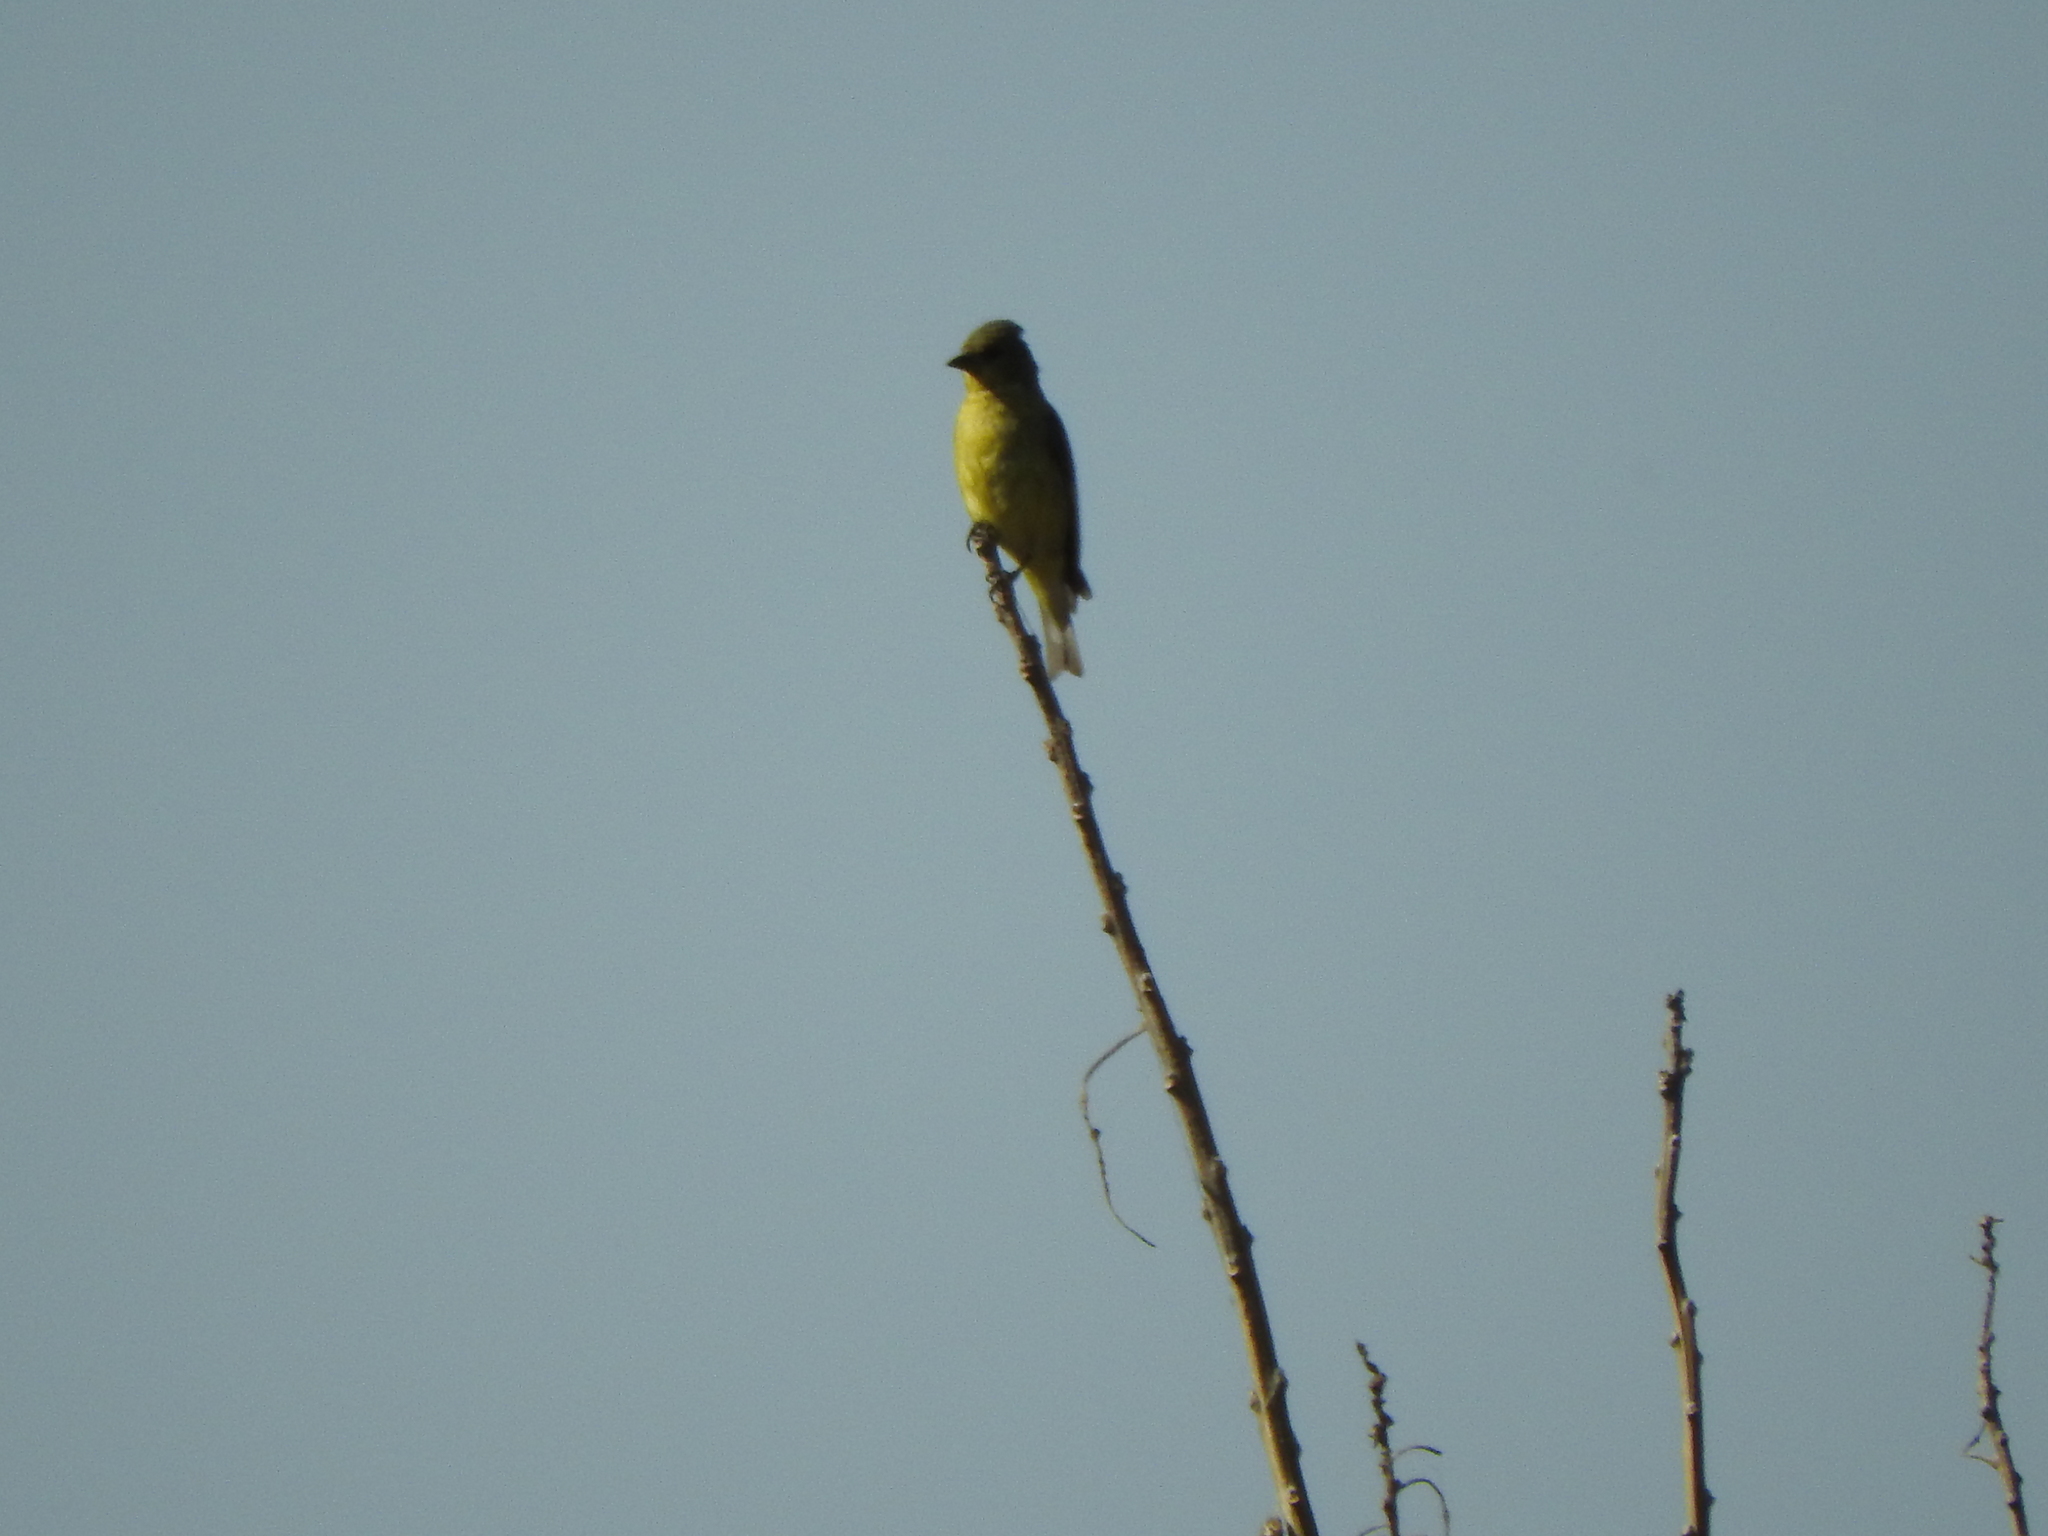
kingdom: Animalia
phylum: Chordata
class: Aves
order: Passeriformes
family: Fringillidae
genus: Spinus
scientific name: Spinus psaltria
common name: Lesser goldfinch
